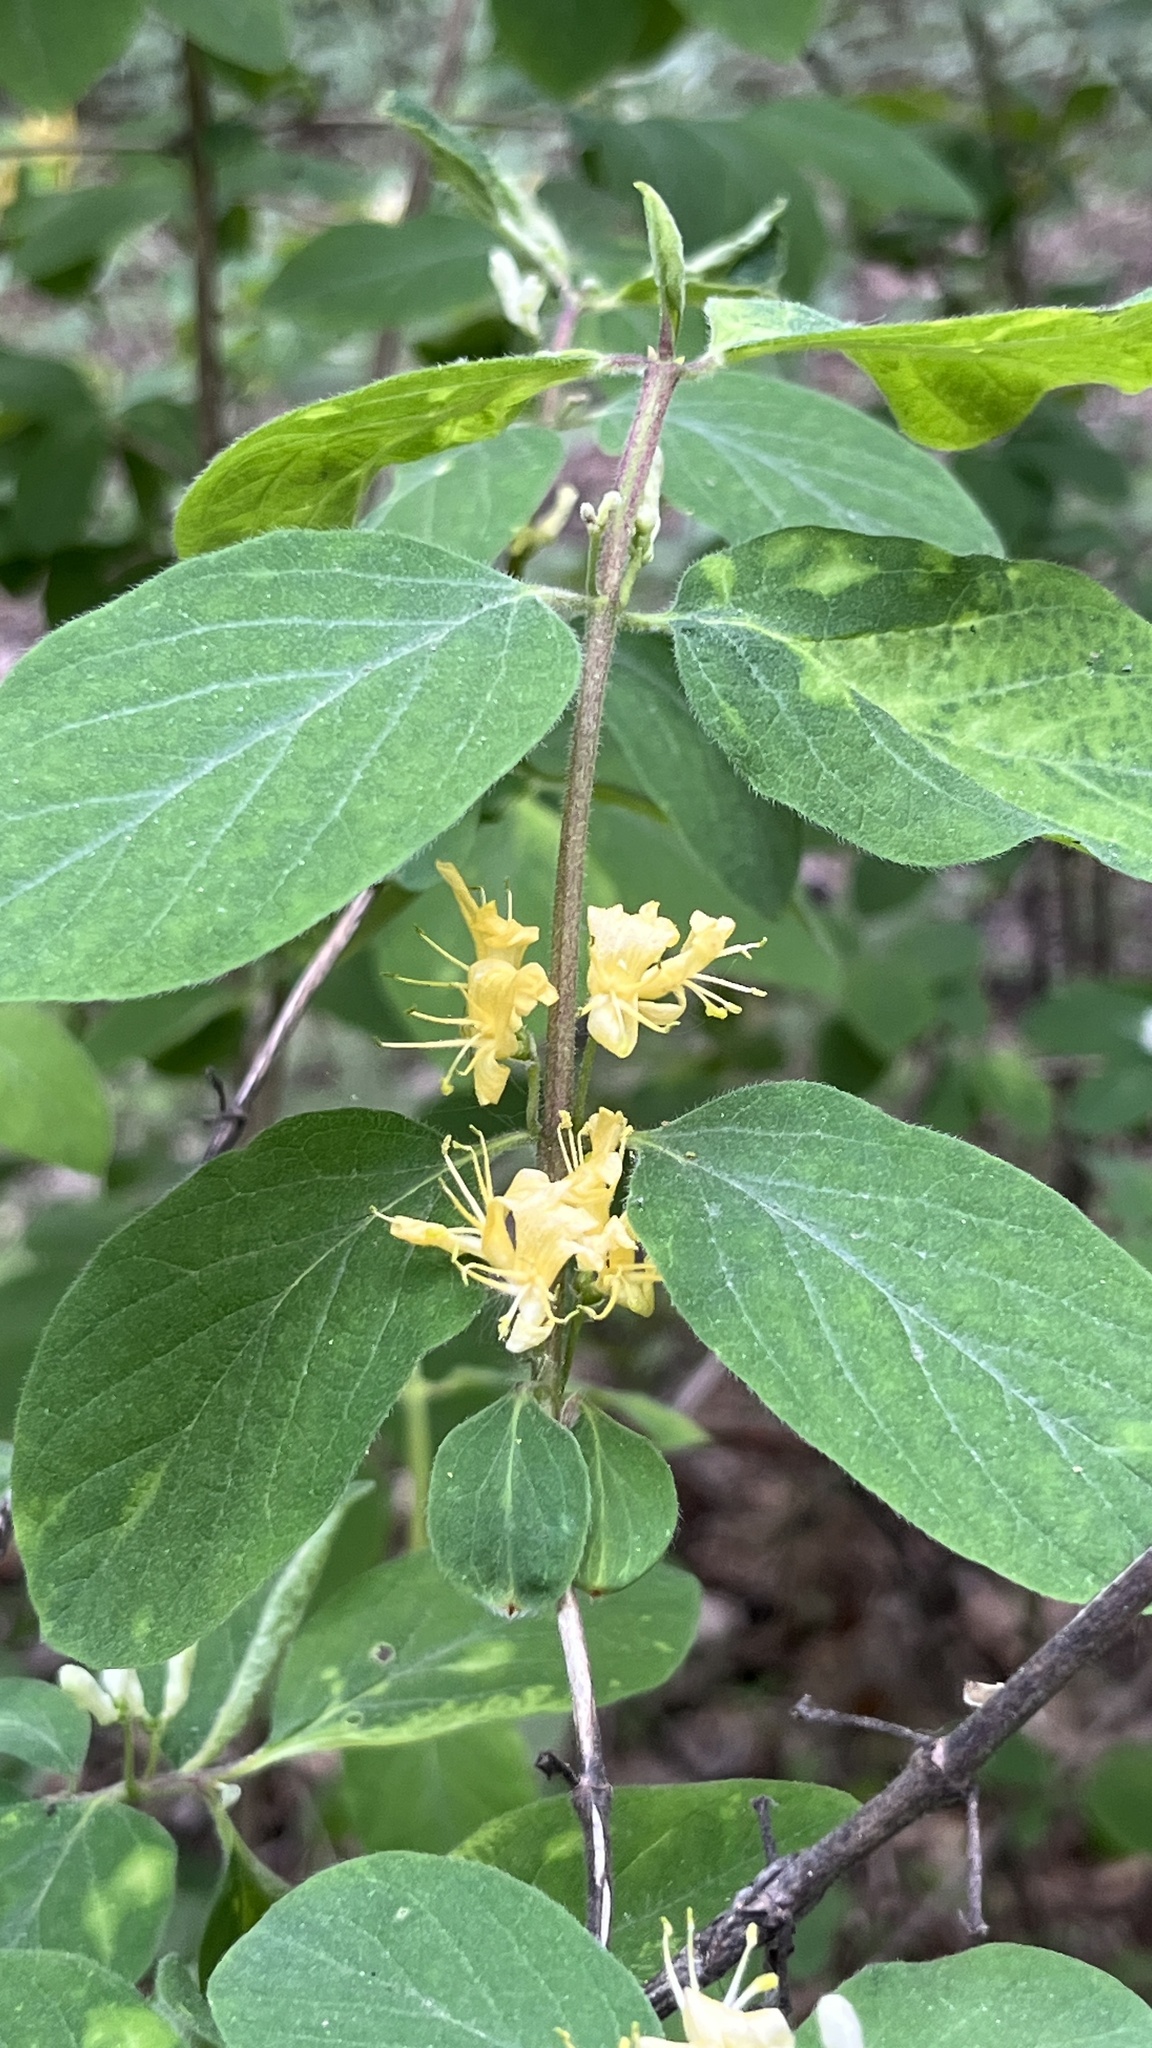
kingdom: Plantae
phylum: Tracheophyta
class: Magnoliopsida
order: Dipsacales
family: Caprifoliaceae
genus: Lonicera
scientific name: Lonicera xylosteum
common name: Fly honeysuckle
